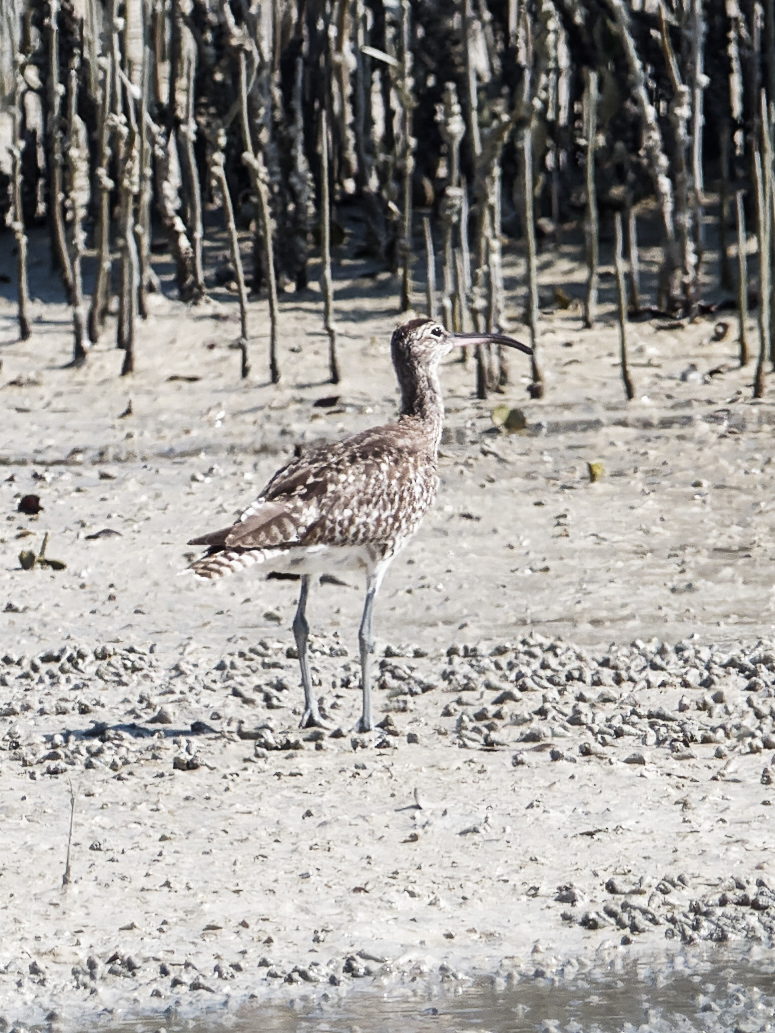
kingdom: Animalia
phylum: Chordata
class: Aves
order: Charadriiformes
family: Scolopacidae
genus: Numenius
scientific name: Numenius phaeopus
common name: Whimbrel
